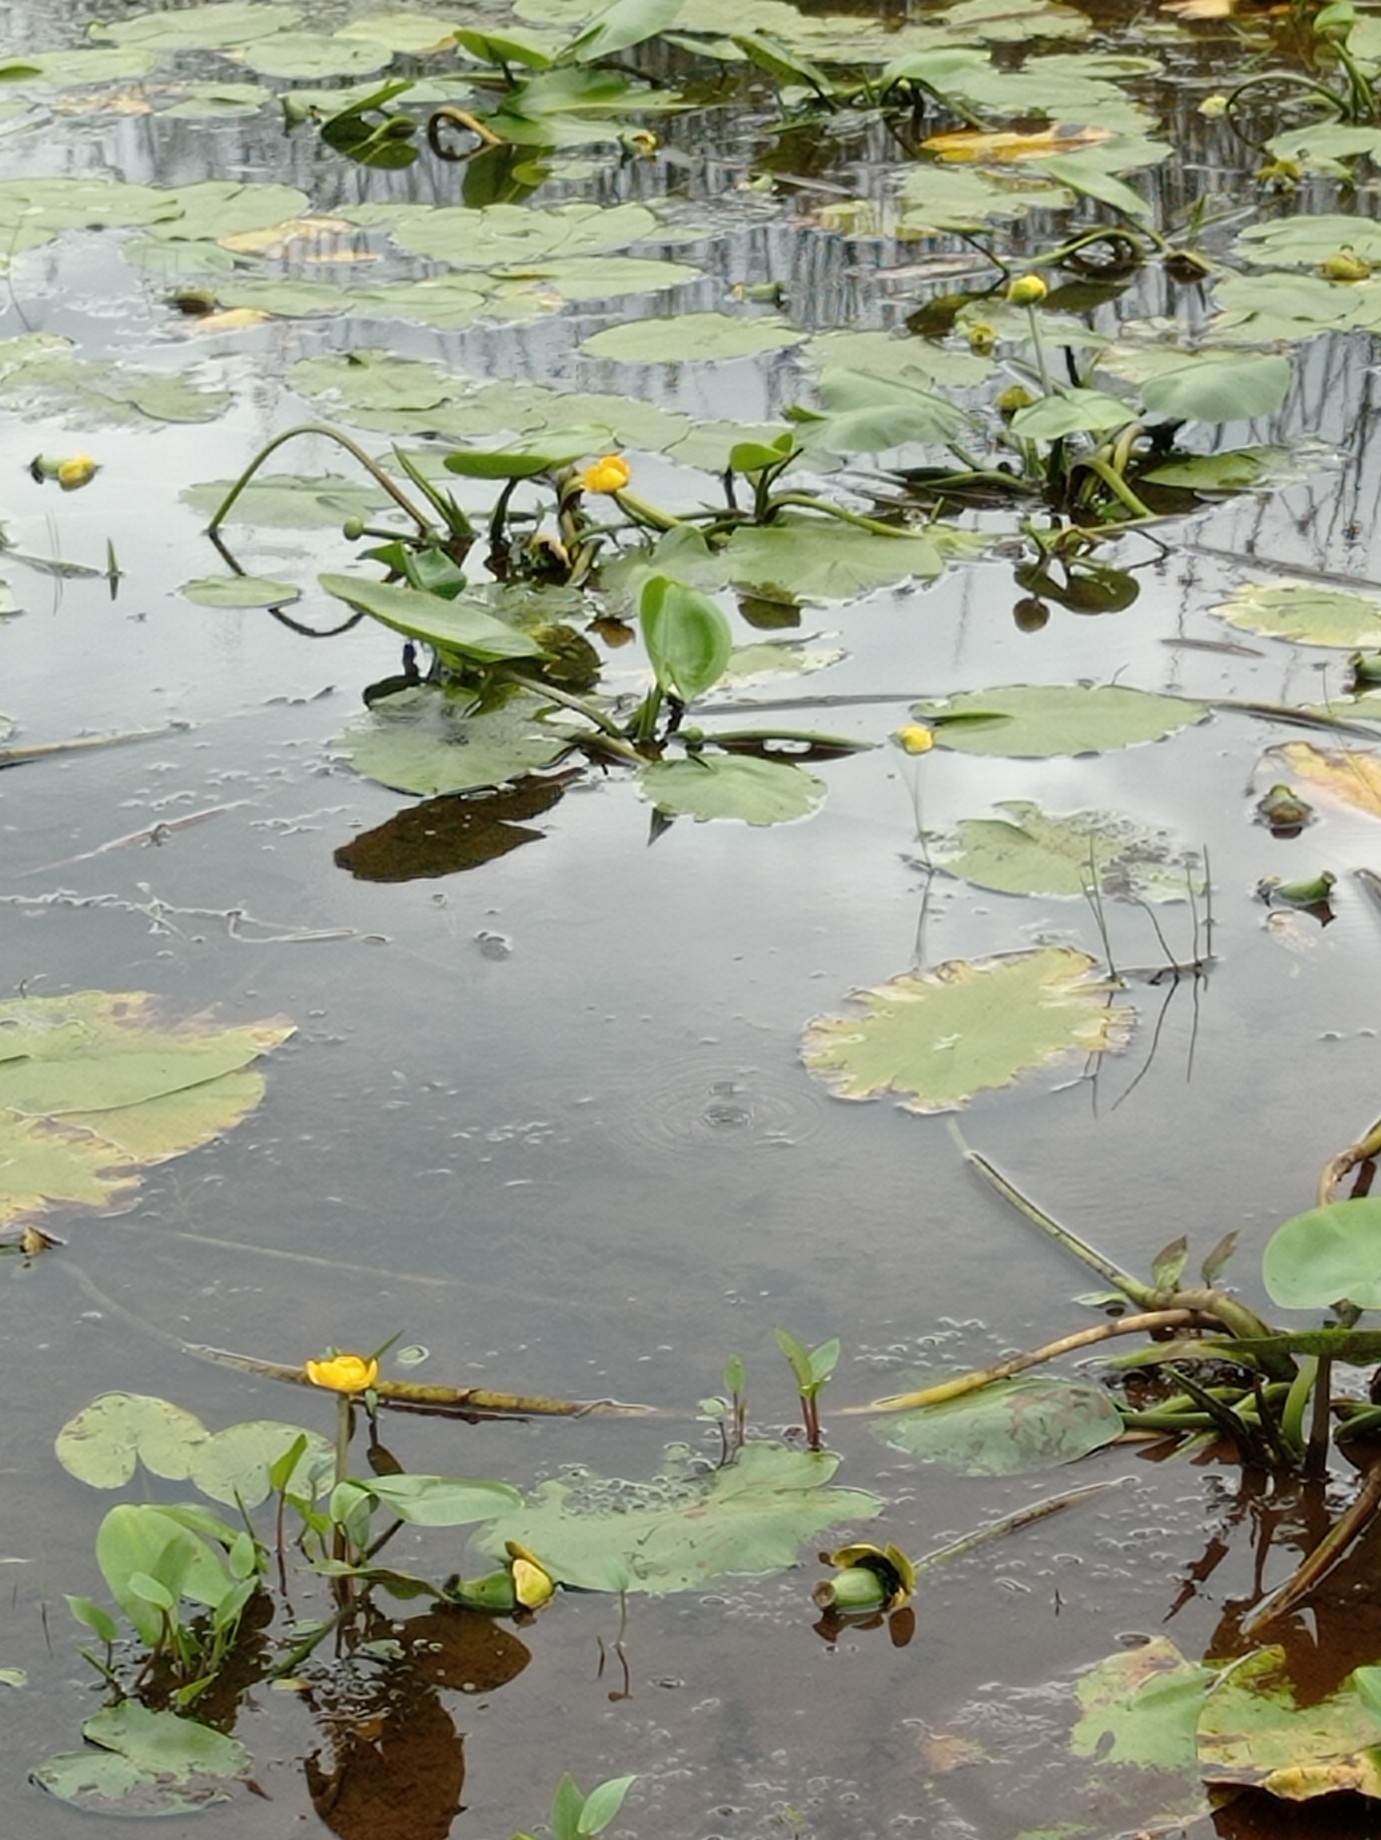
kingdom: Plantae
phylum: Tracheophyta
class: Magnoliopsida
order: Nymphaeales
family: Nymphaeaceae
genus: Nuphar
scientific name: Nuphar lutea
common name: Yellow water-lily
